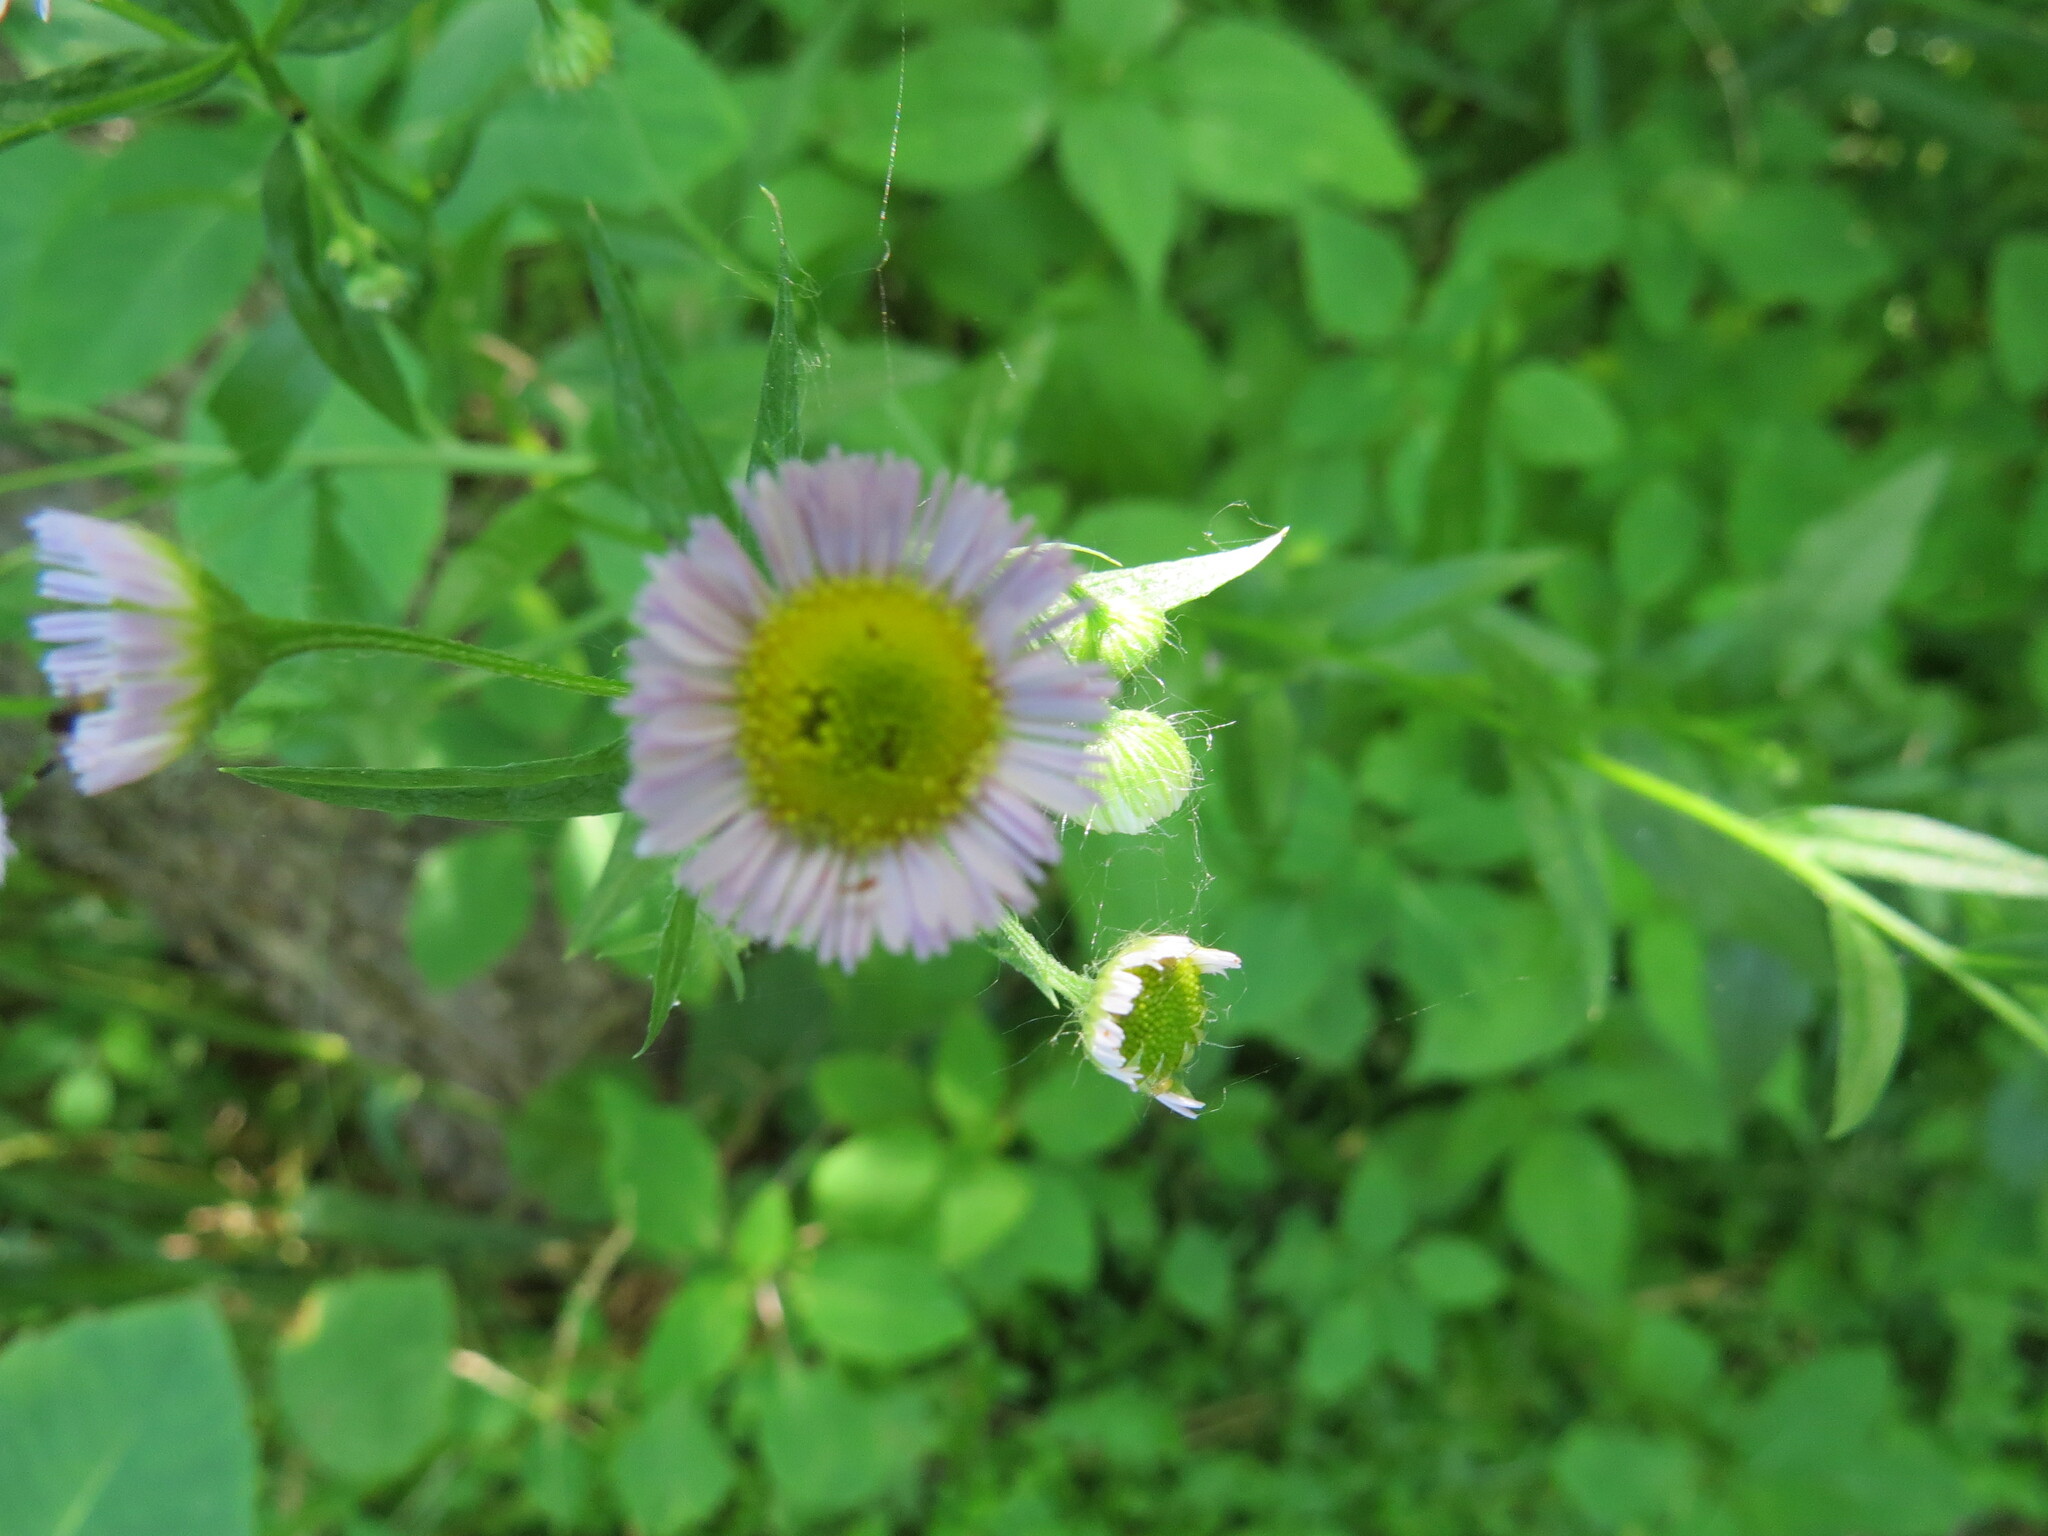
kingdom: Plantae
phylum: Tracheophyta
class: Magnoliopsida
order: Asterales
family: Asteraceae
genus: Erigeron
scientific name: Erigeron annuus
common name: Tall fleabane
